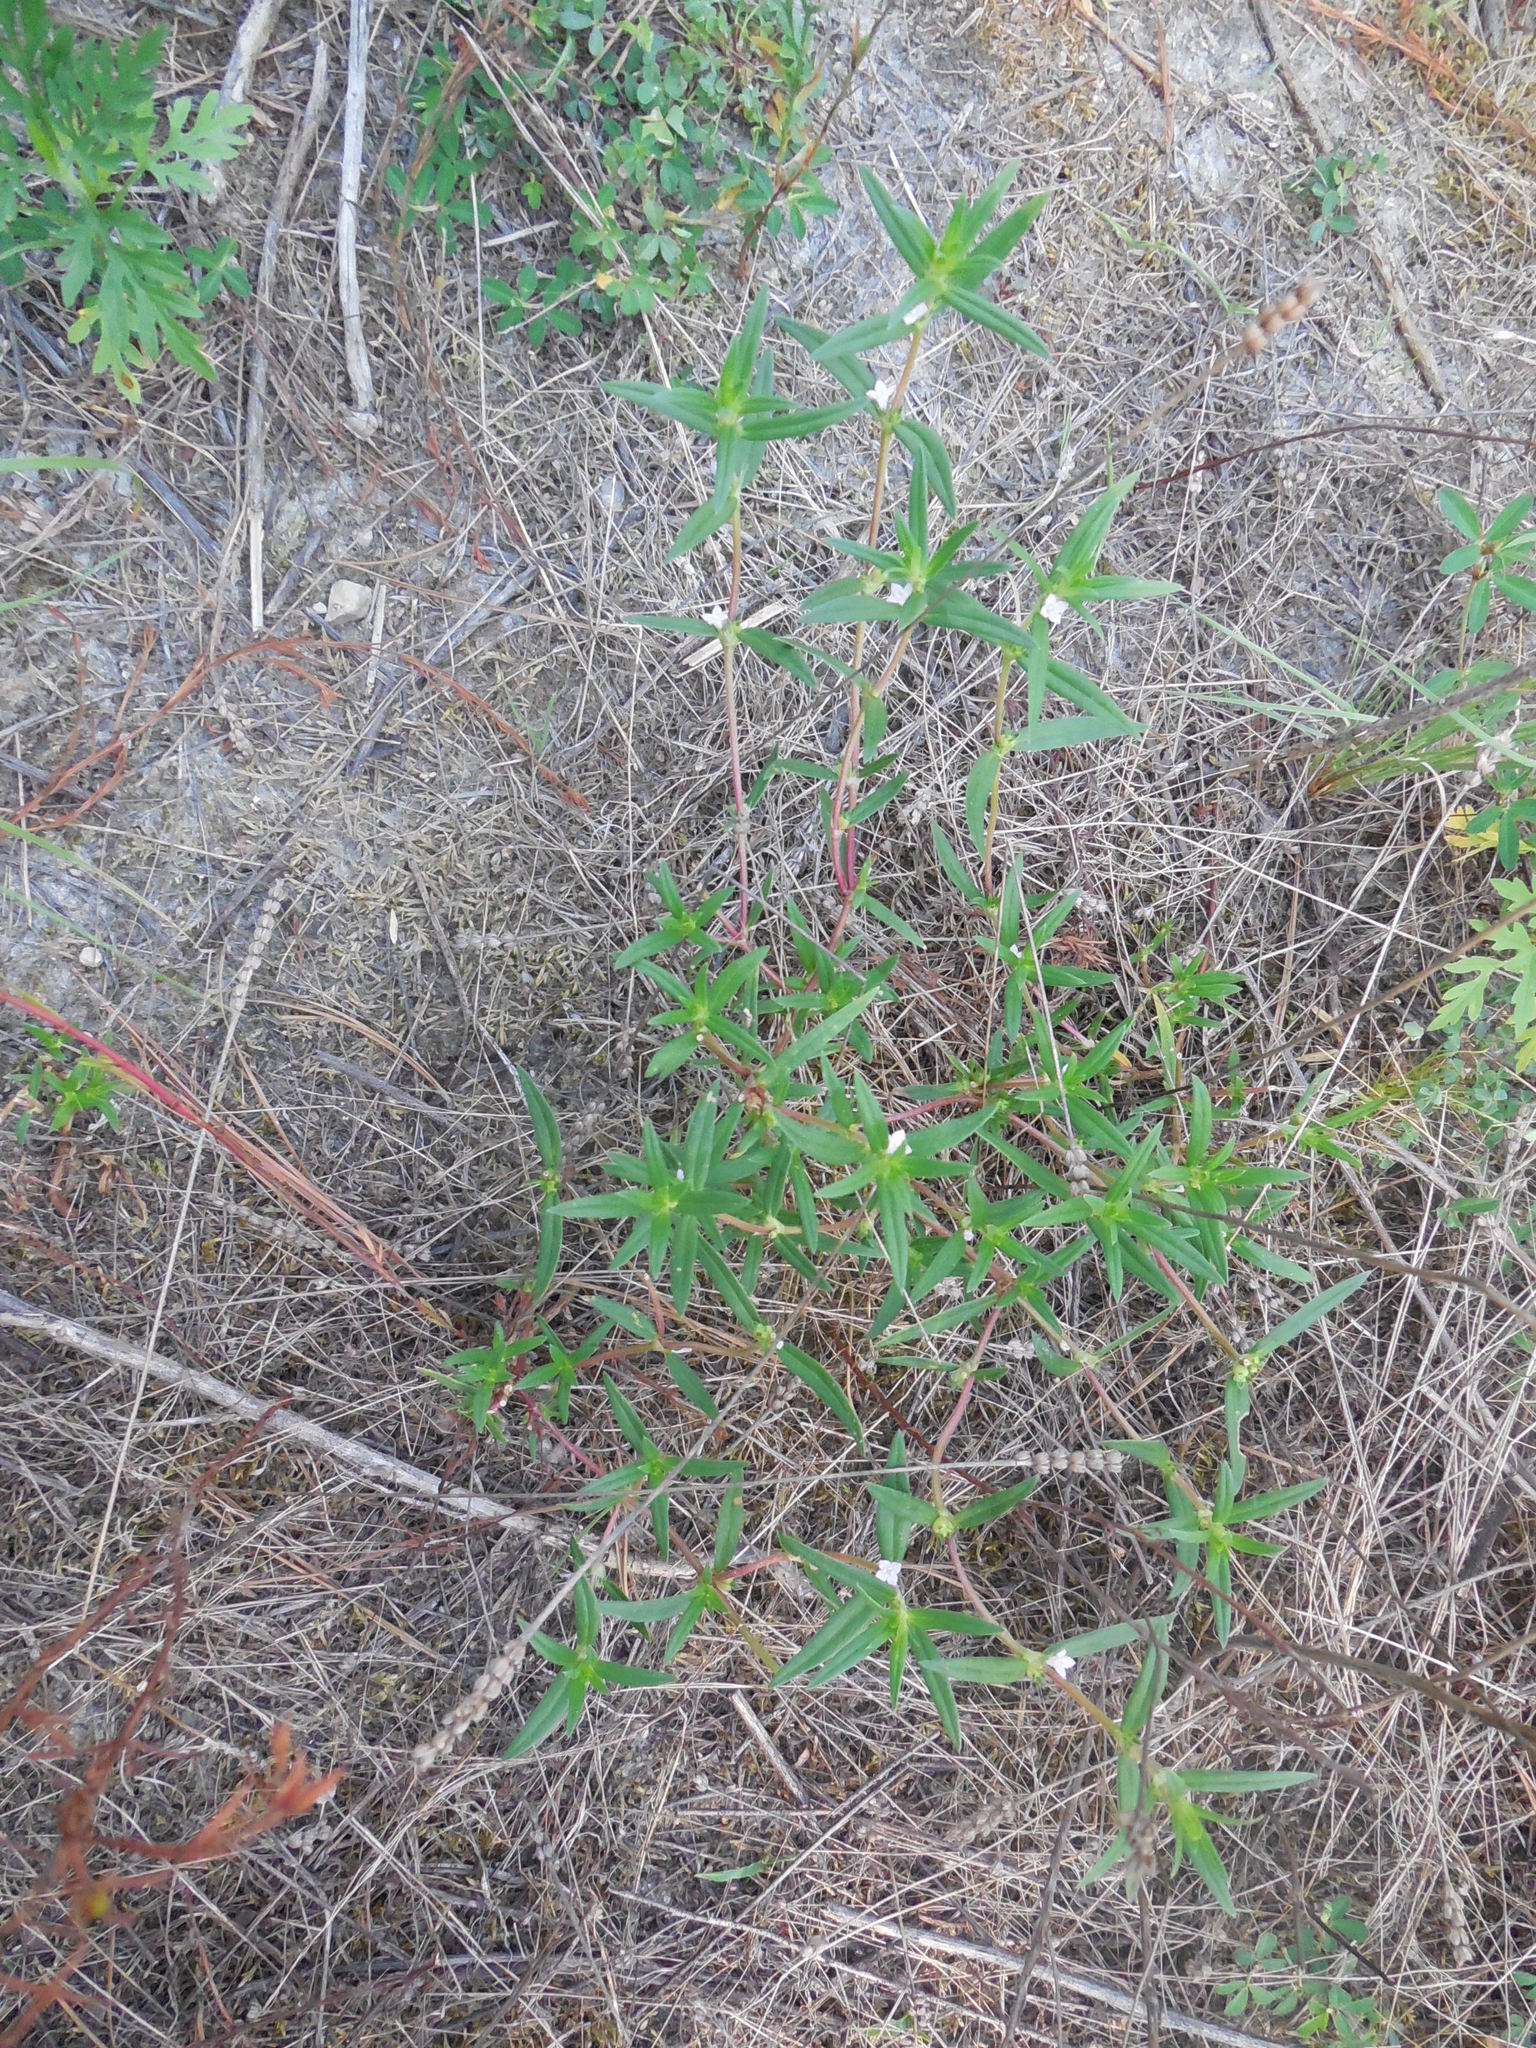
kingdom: Plantae
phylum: Tracheophyta
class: Magnoliopsida
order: Gentianales
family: Rubiaceae
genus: Hexasepalum
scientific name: Hexasepalum teres
